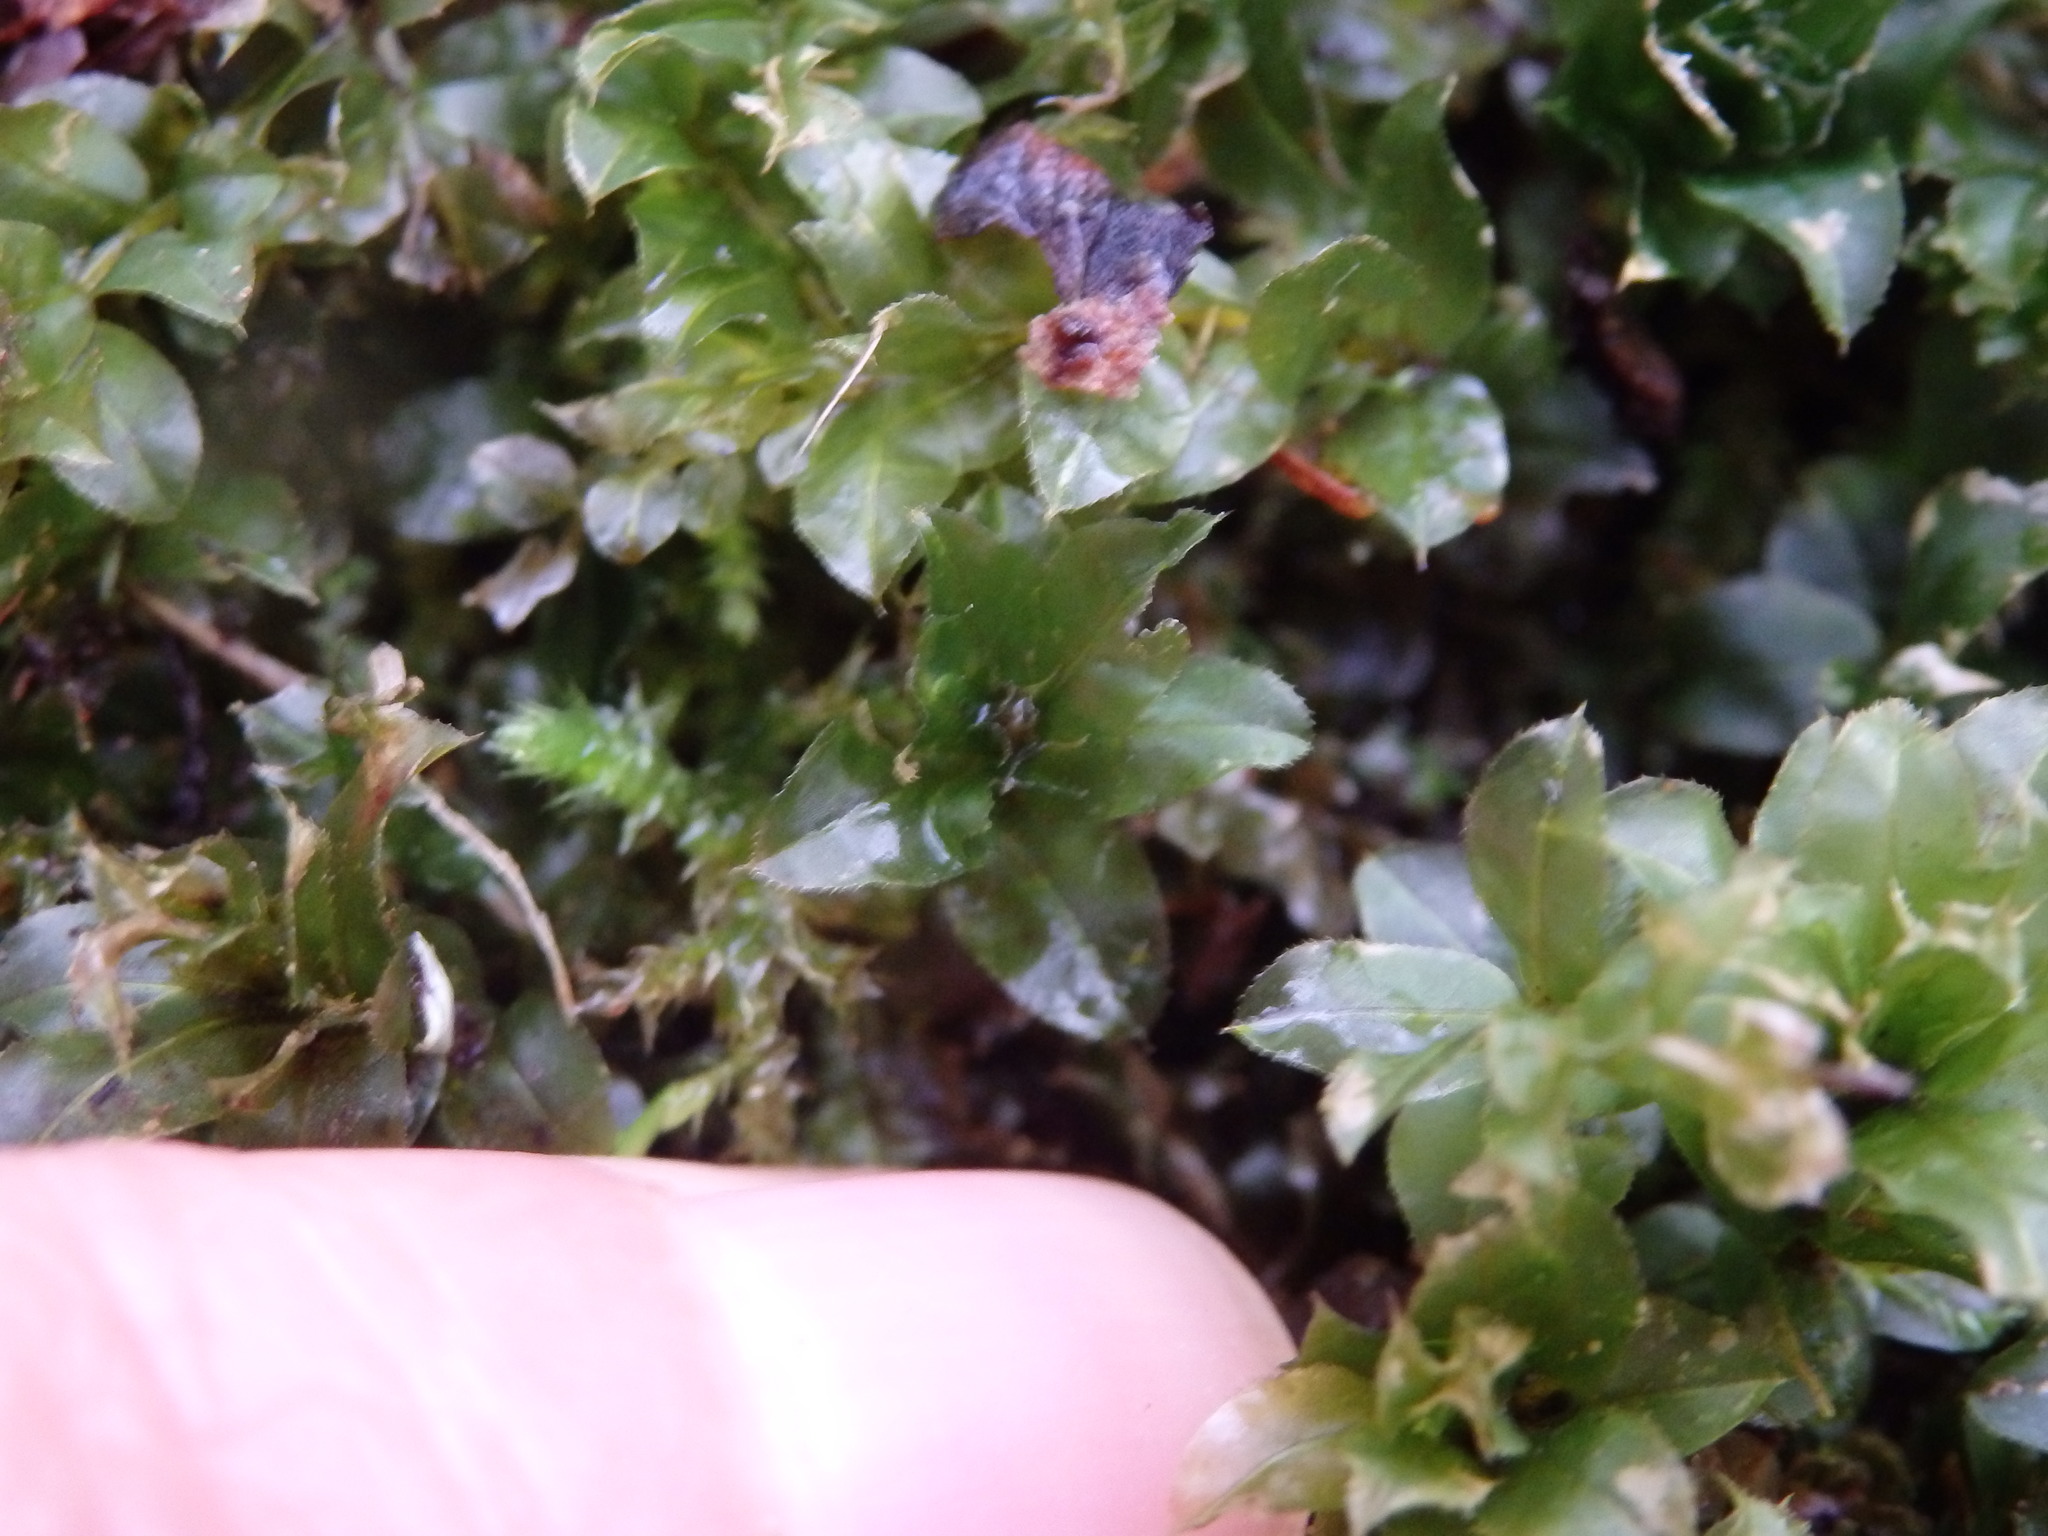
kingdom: Plantae
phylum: Bryophyta
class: Bryopsida
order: Bryales
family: Mniaceae
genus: Plagiomnium
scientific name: Plagiomnium affine
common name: Many-fruited thyme-moss
